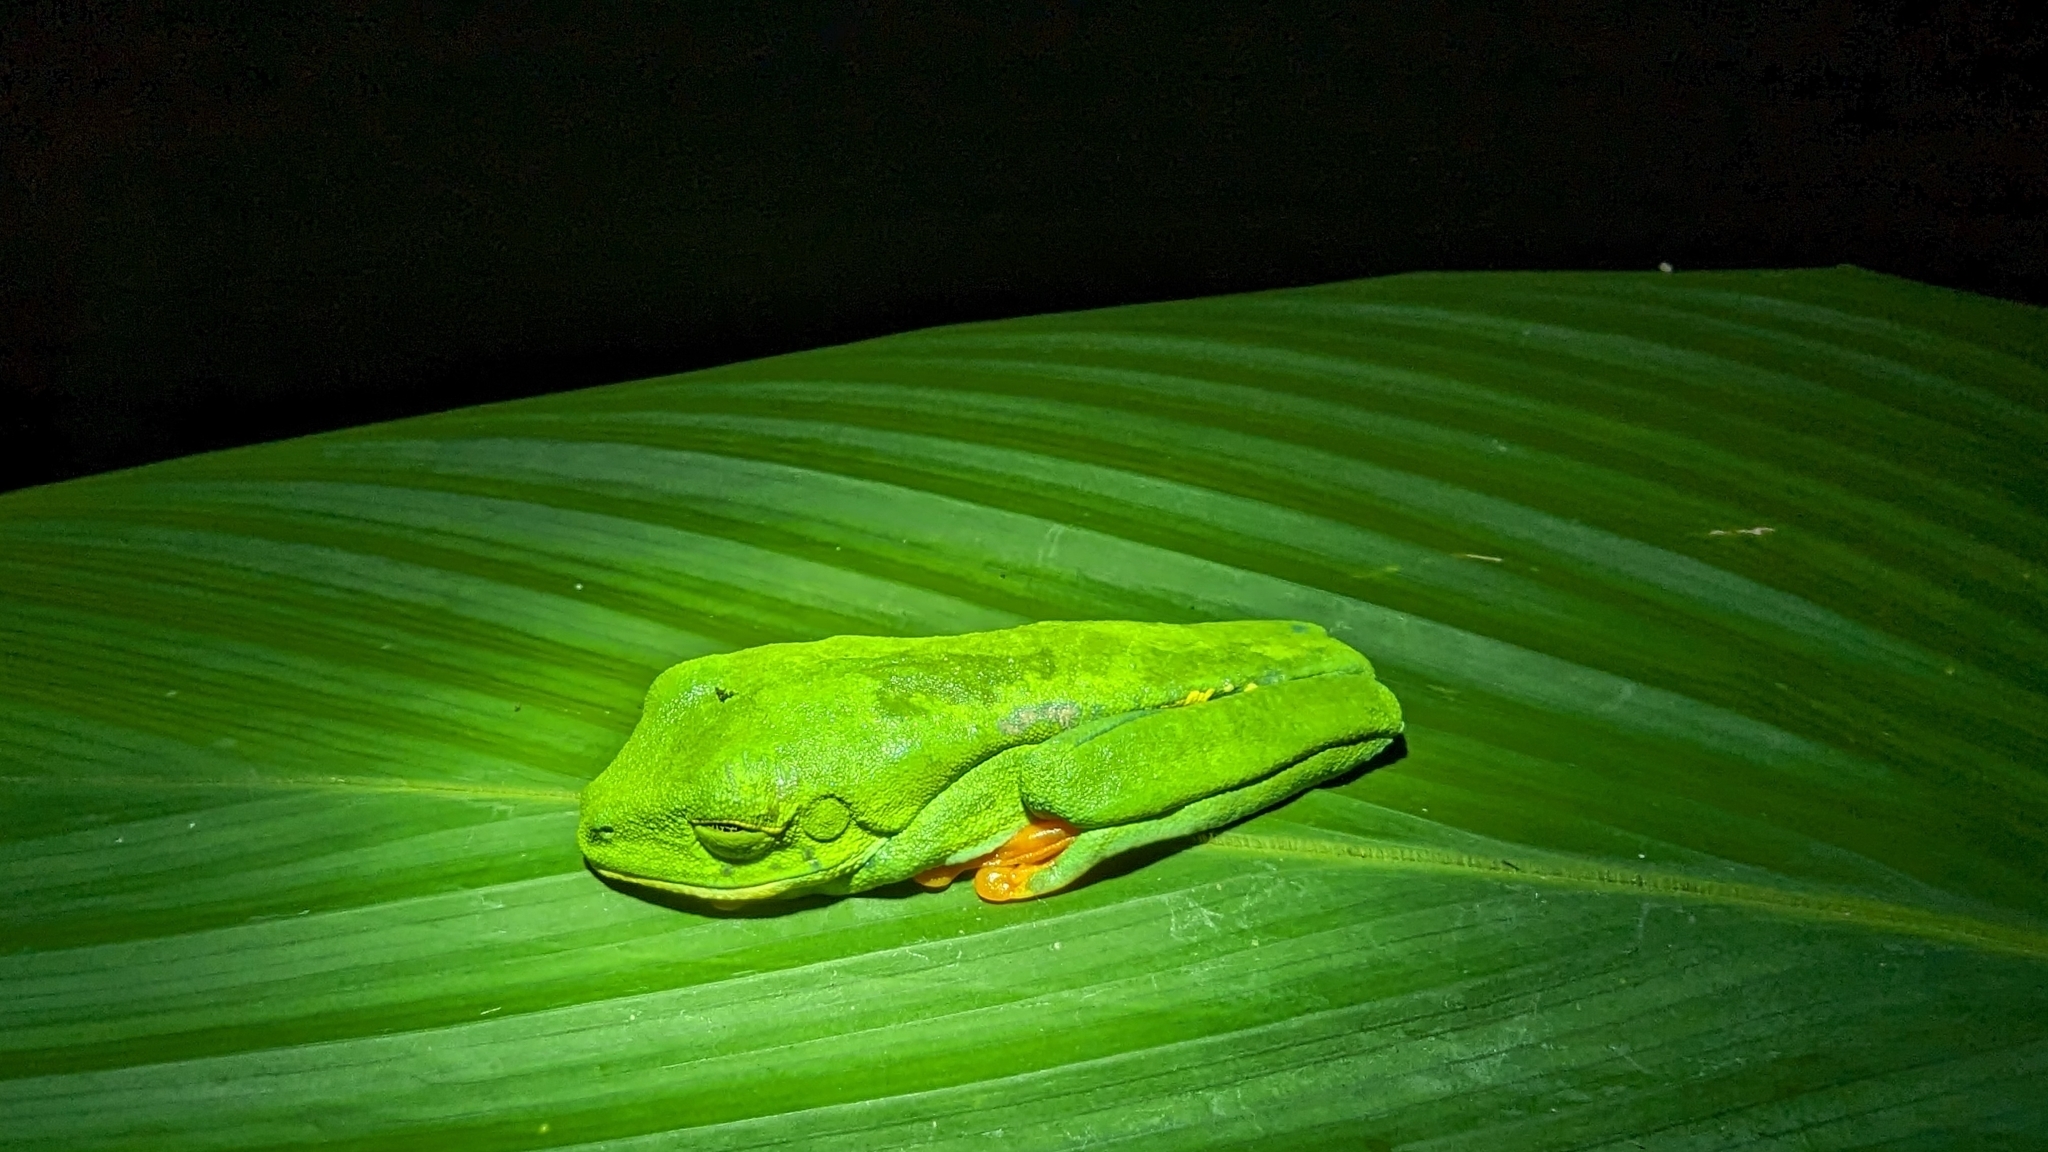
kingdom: Animalia
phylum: Chordata
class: Amphibia
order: Anura
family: Phyllomedusidae
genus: Agalychnis
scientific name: Agalychnis callidryas
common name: Red-eyed treefrog
